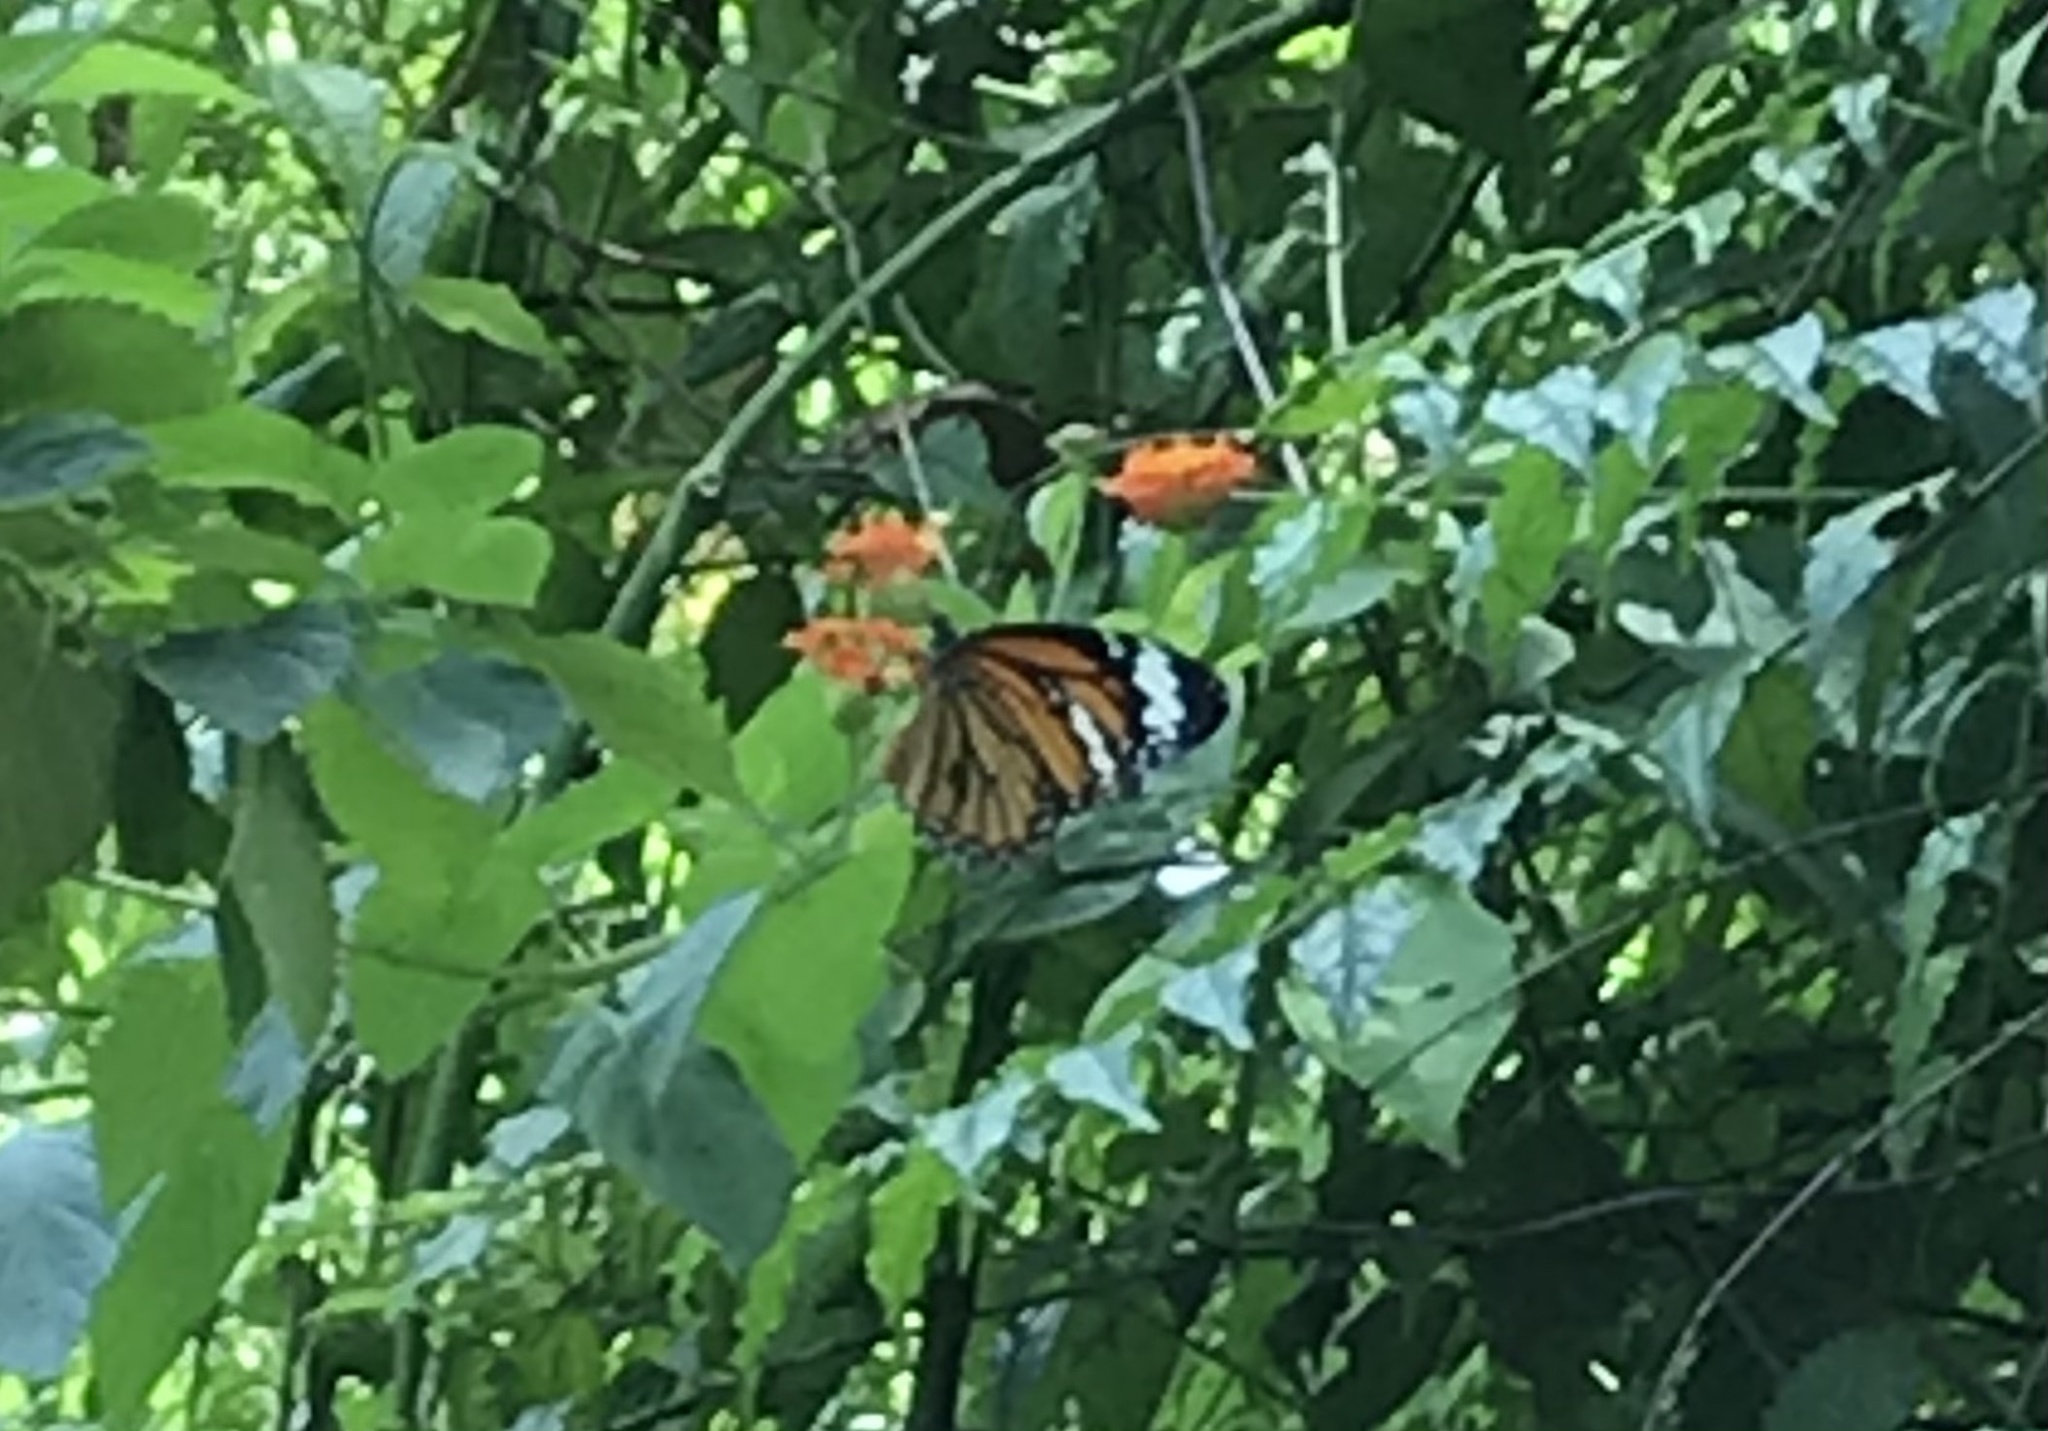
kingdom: Animalia
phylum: Arthropoda
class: Insecta
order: Lepidoptera
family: Nymphalidae
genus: Danaus
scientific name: Danaus genutia
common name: Common tiger butterfly
